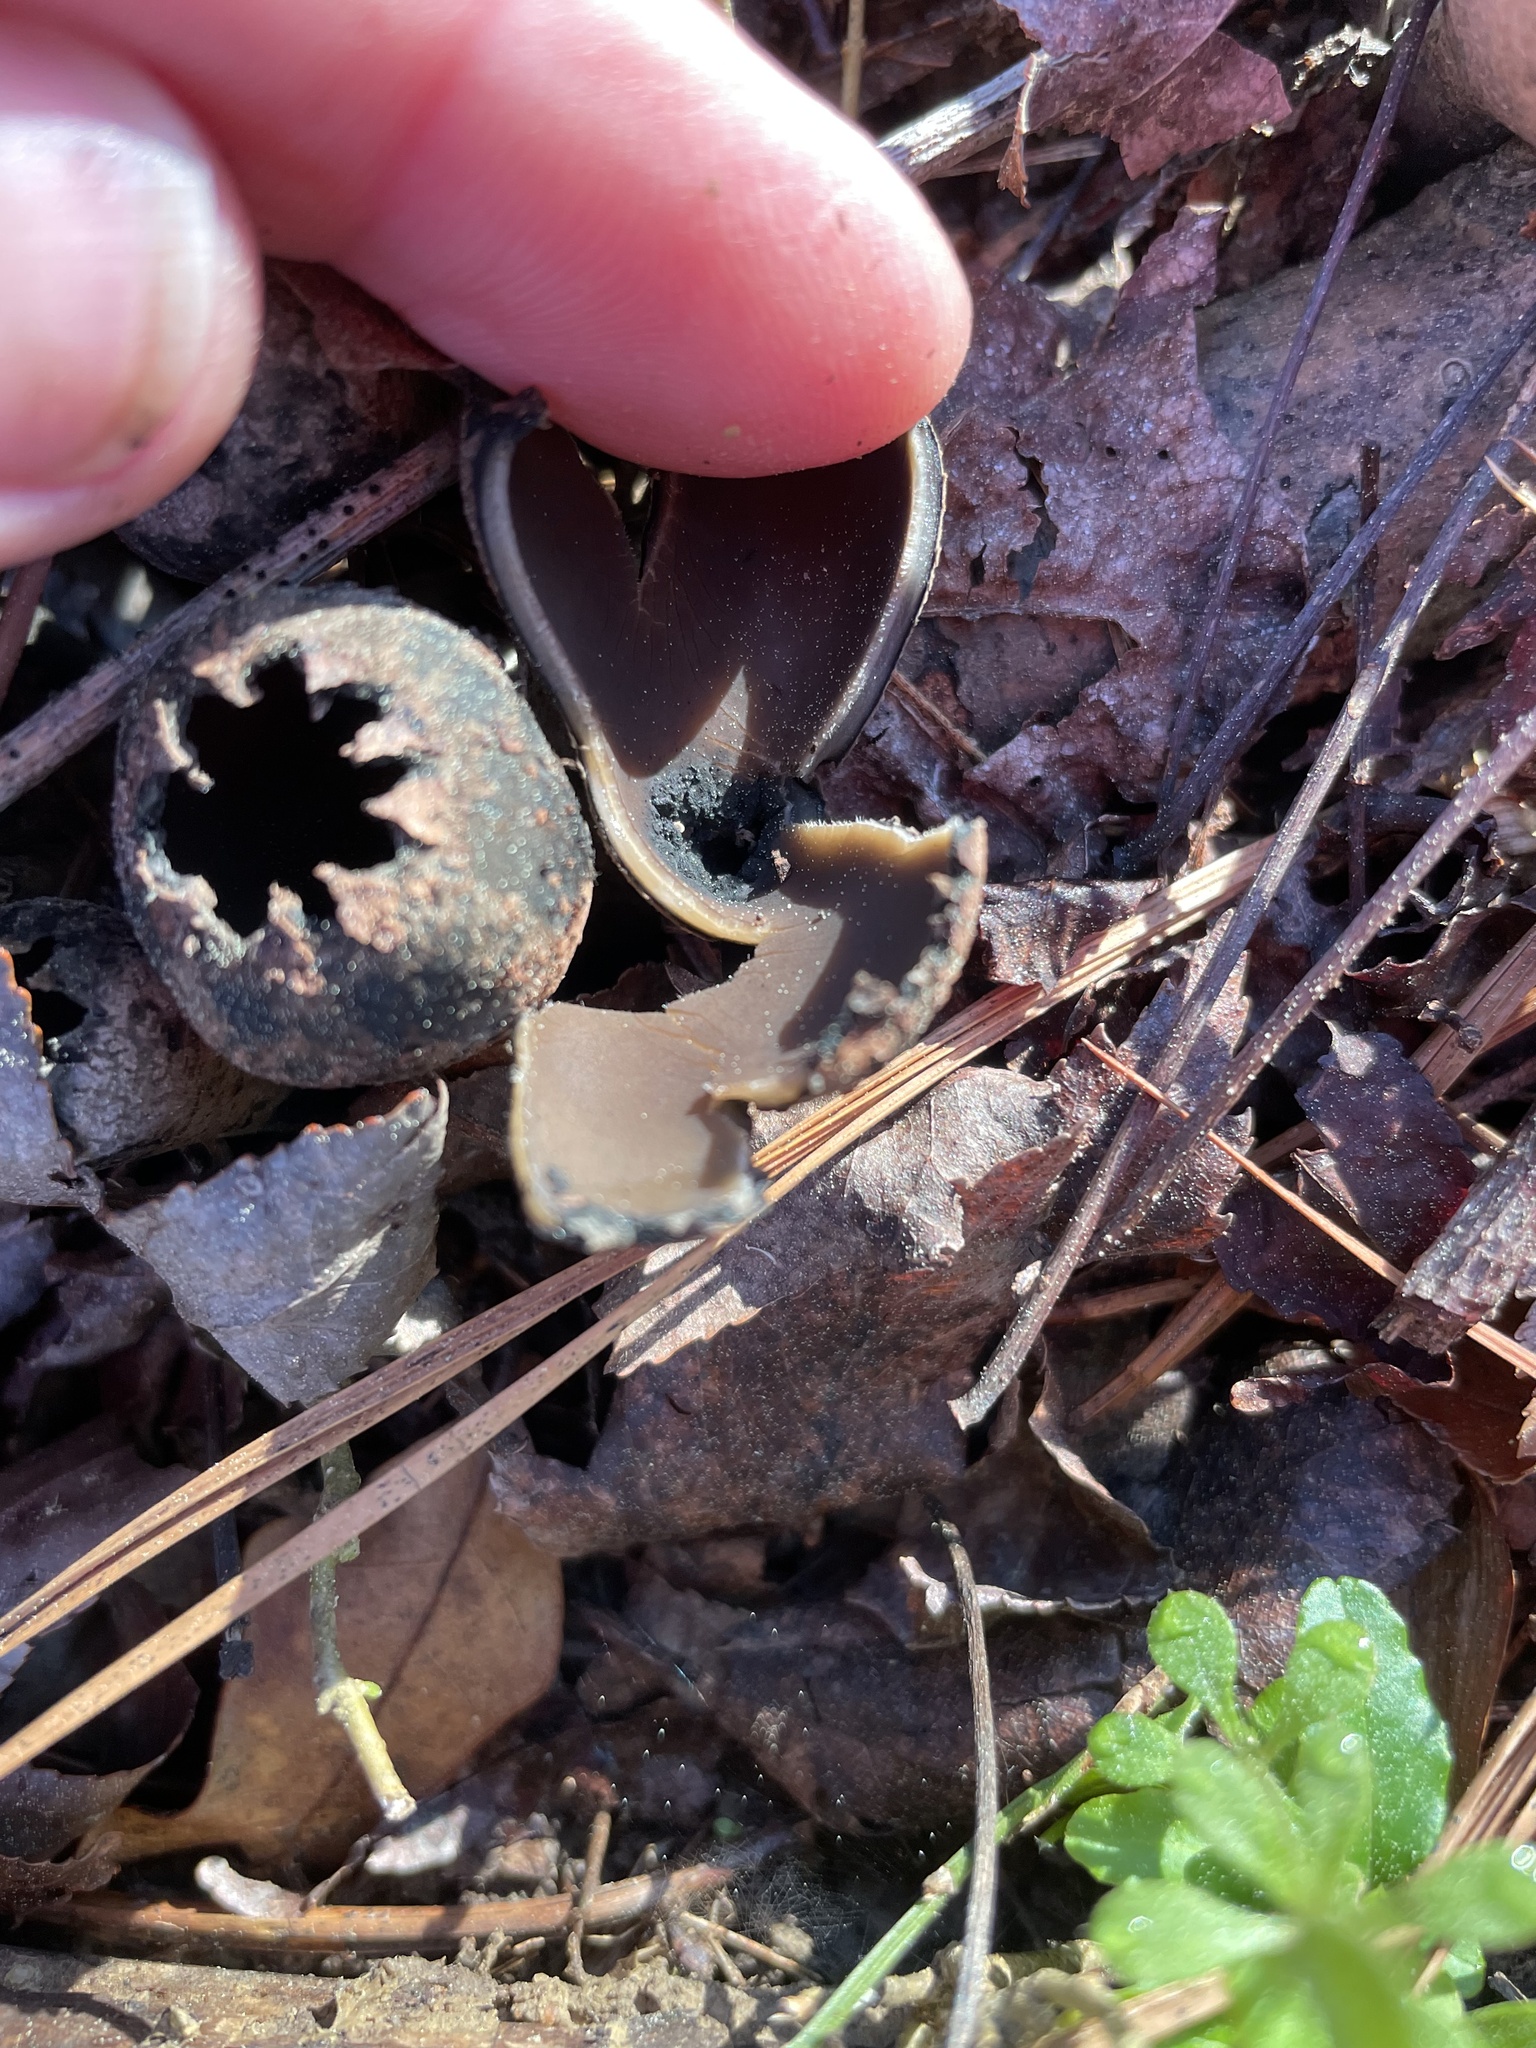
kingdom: Fungi
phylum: Ascomycota
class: Pezizomycetes
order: Pezizales
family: Sarcosomataceae
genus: Urnula
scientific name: Urnula craterium
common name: Devil's urn
